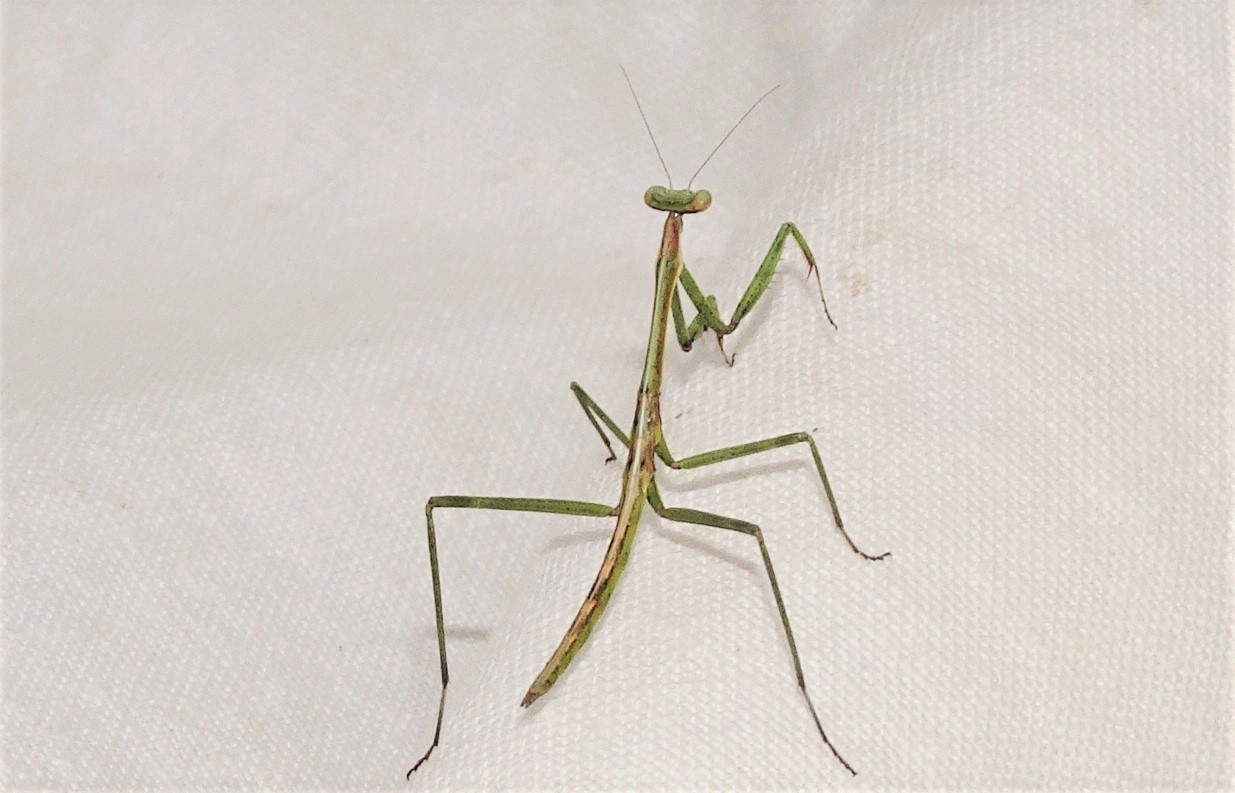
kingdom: Animalia
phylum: Arthropoda
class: Insecta
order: Mantodea
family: Mantidae
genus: Archimantis
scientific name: Archimantis latistyla
